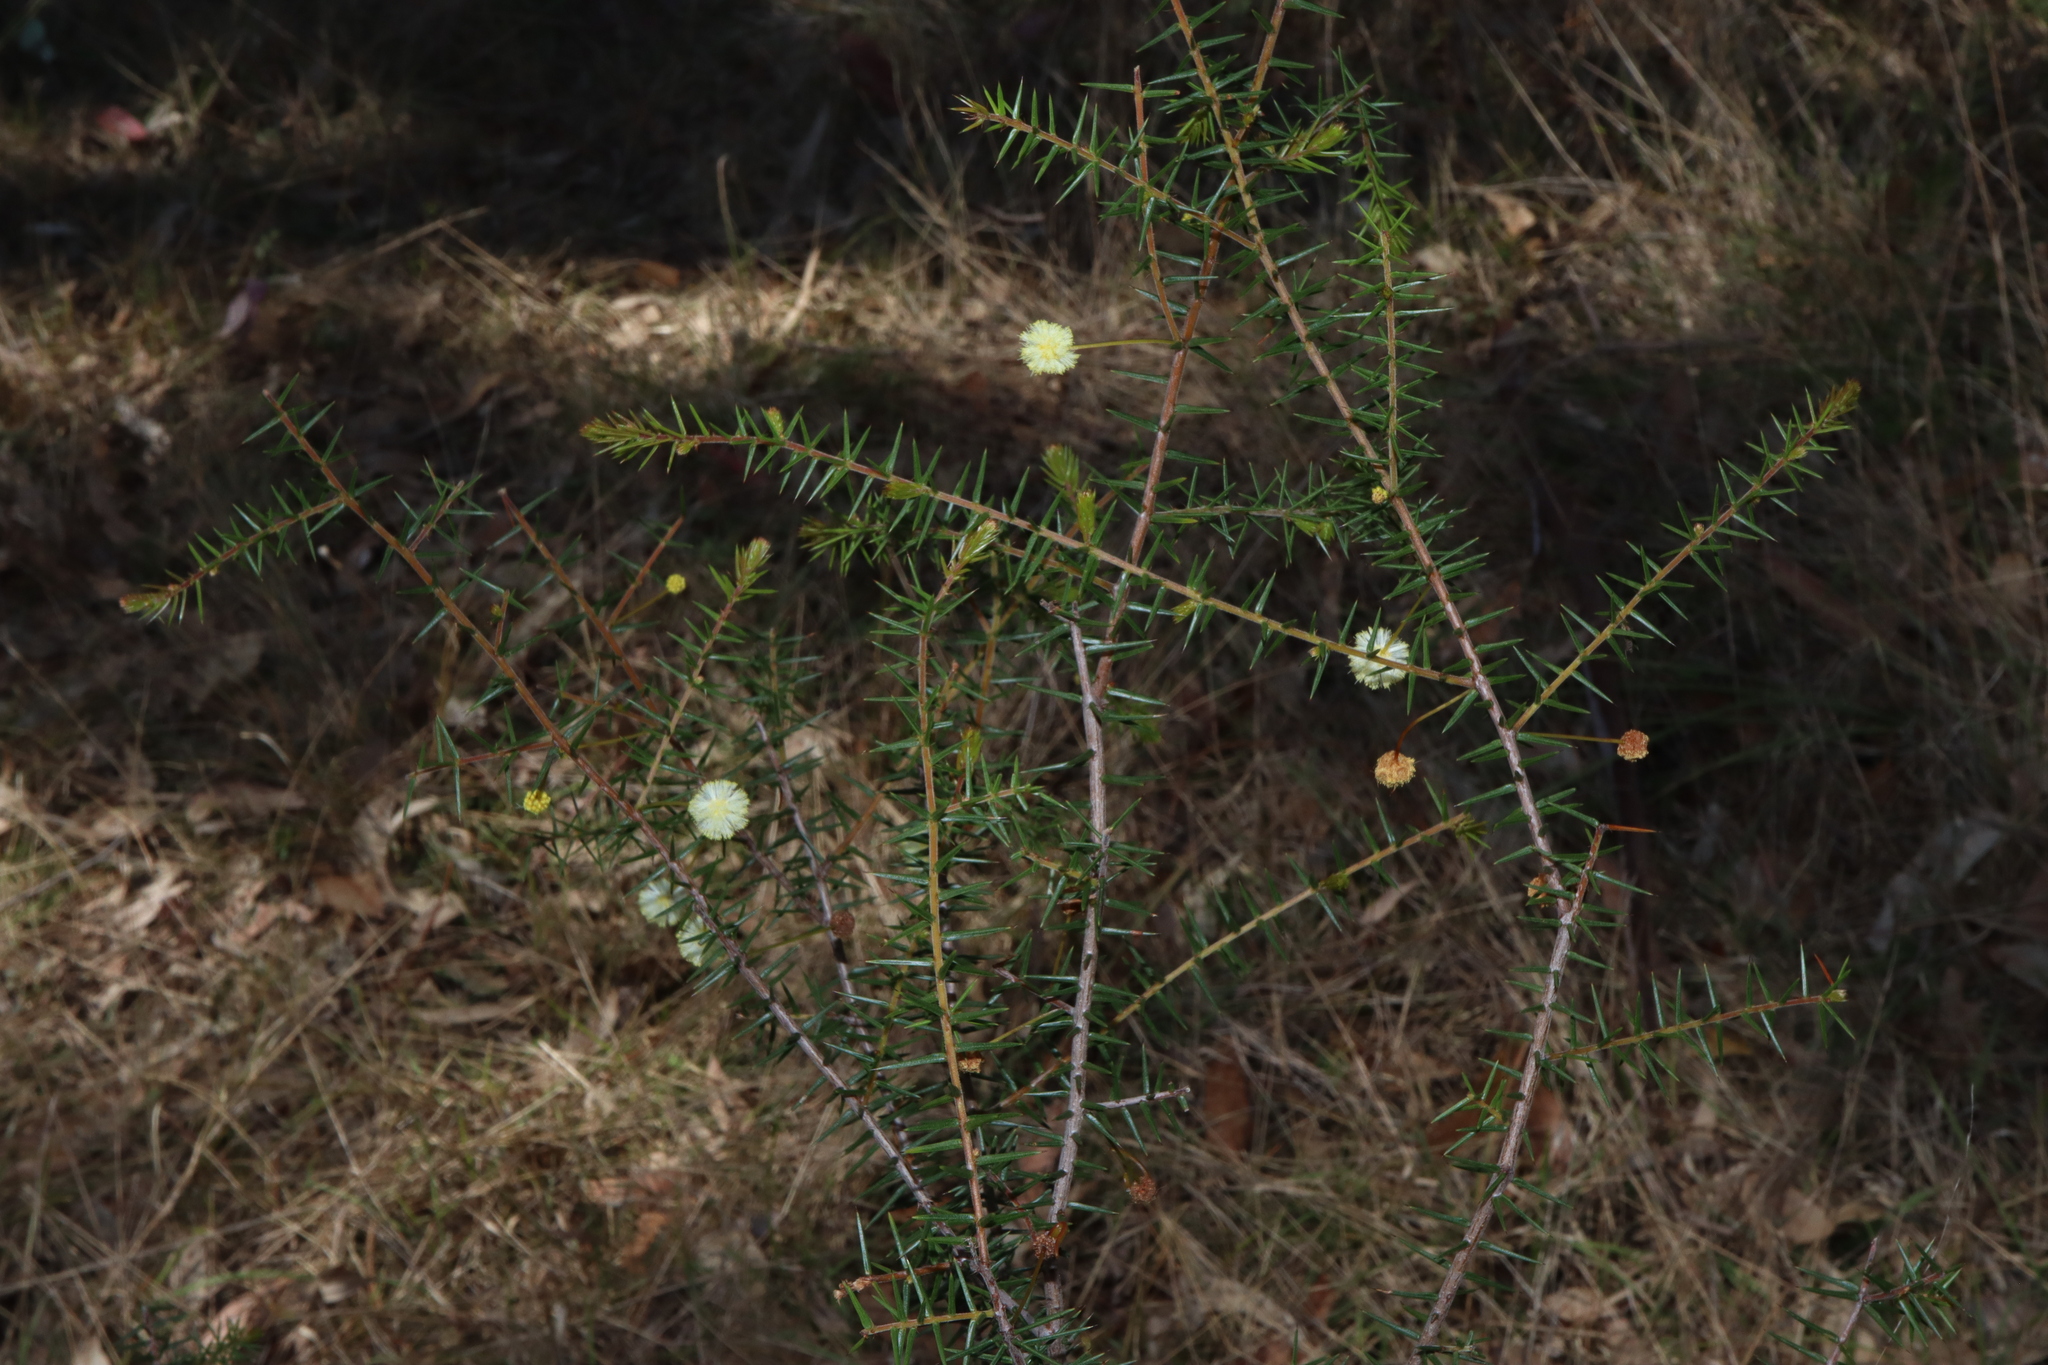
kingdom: Plantae
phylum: Tracheophyta
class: Magnoliopsida
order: Fabales
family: Fabaceae
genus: Acacia
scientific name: Acacia ulicifolia
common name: Juniper wattle
